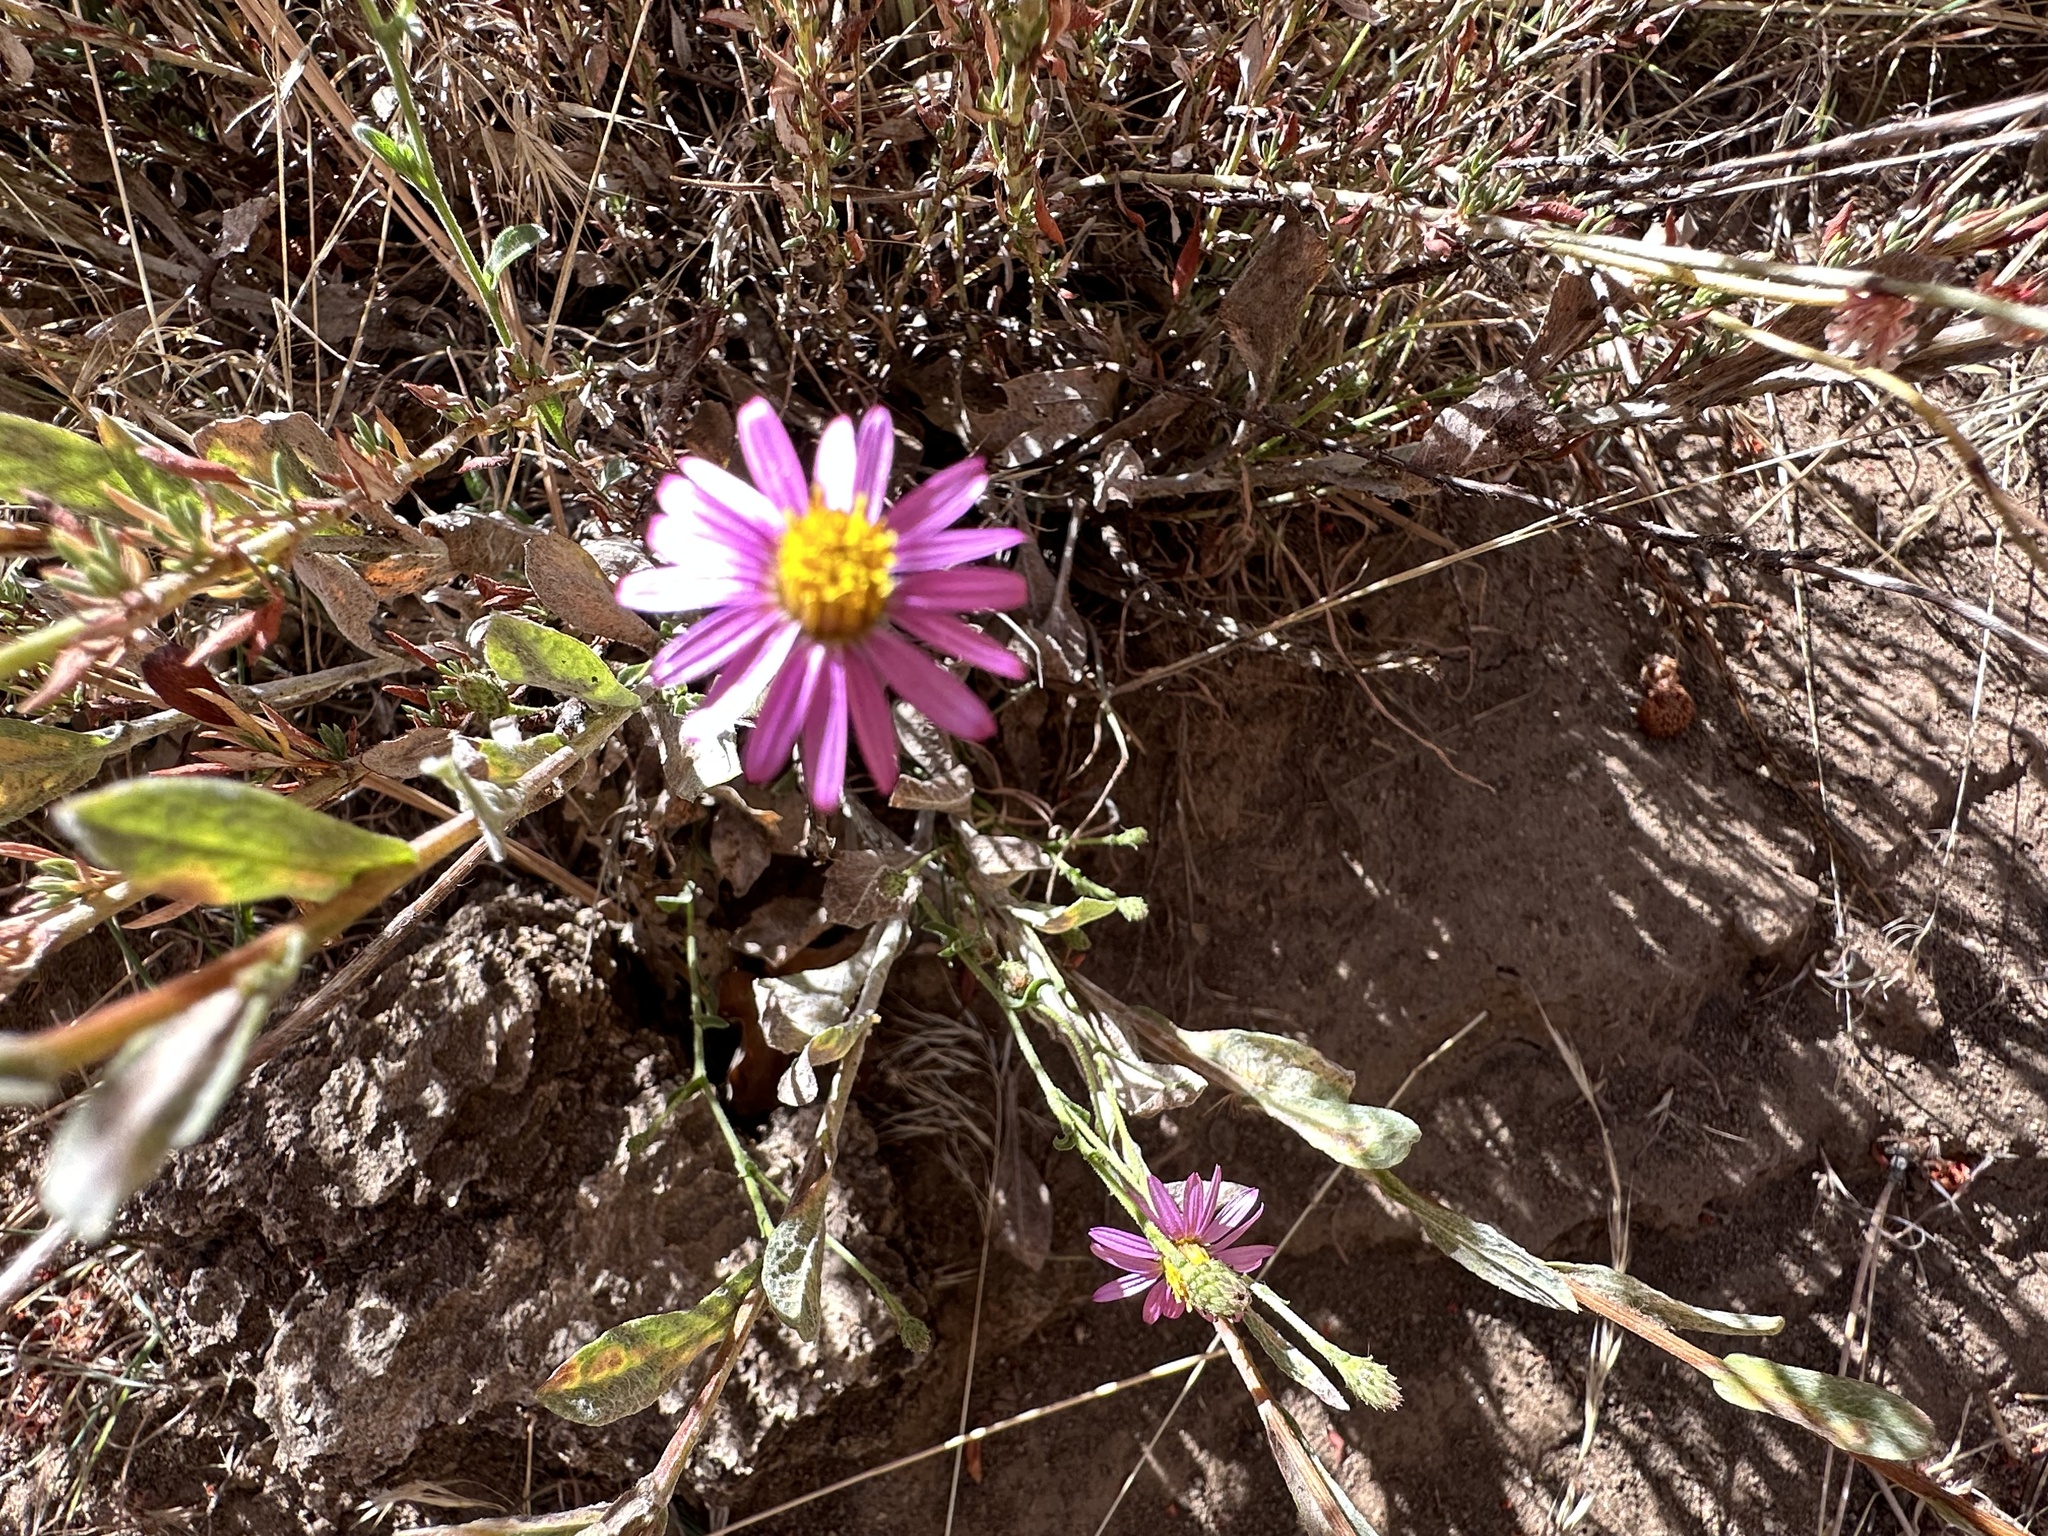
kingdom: Plantae
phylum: Tracheophyta
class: Magnoliopsida
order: Asterales
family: Asteraceae
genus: Corethrogyne
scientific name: Corethrogyne filaginifolia
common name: Sand-aster
